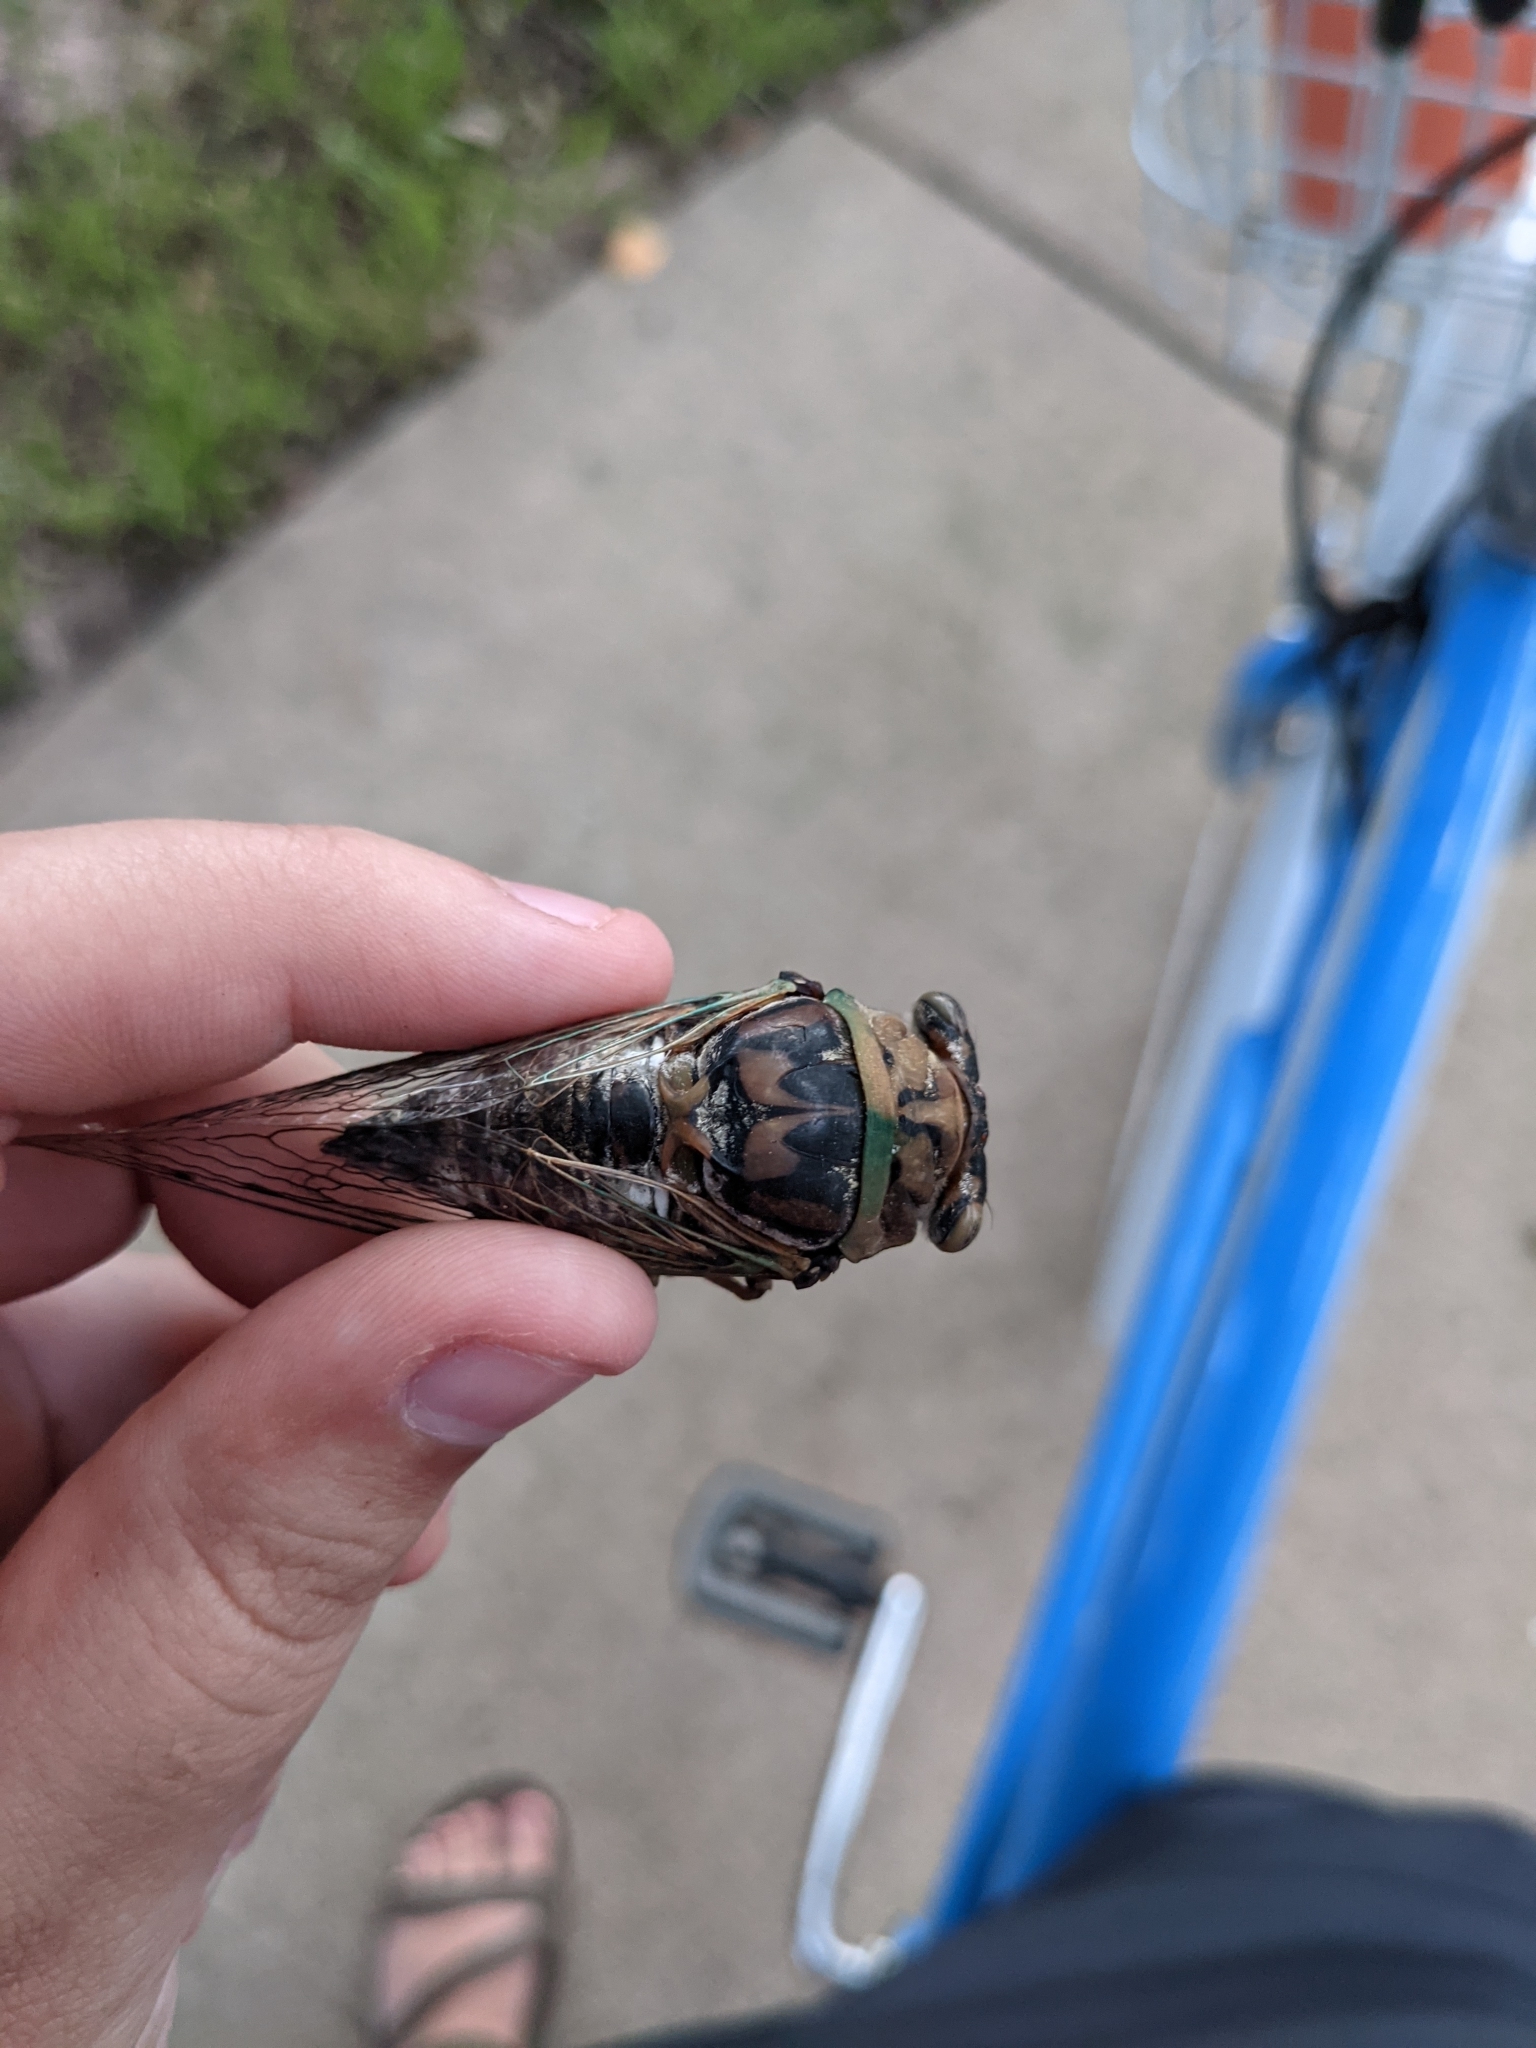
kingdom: Animalia
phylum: Arthropoda
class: Insecta
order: Hemiptera
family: Cicadidae
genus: Megatibicen
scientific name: Megatibicen resh
